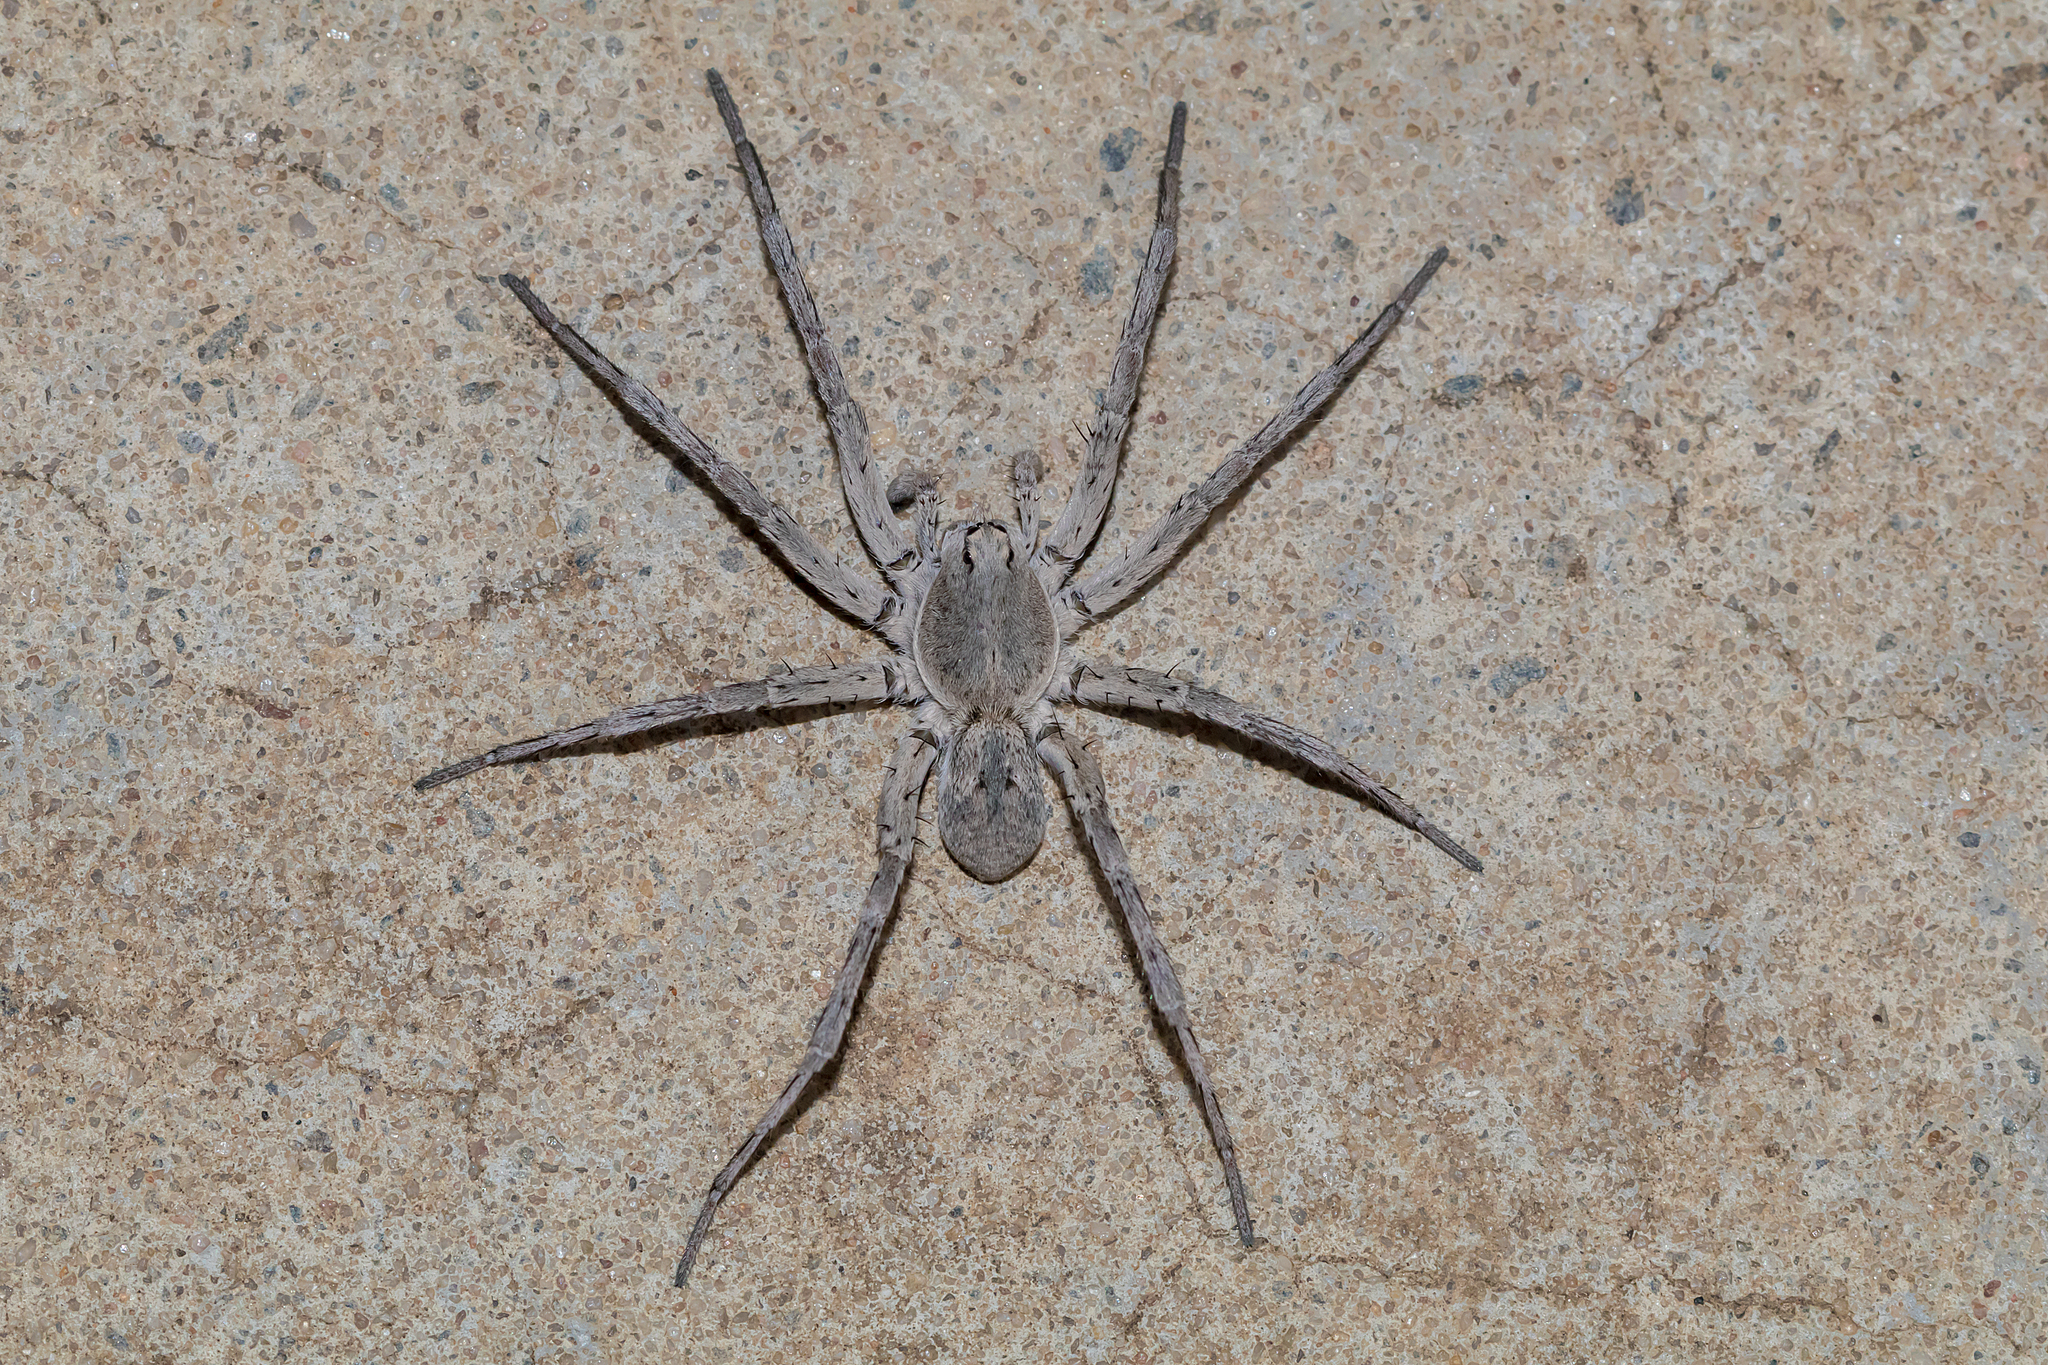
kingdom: Animalia
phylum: Arthropoda
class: Arachnida
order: Araneae
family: Lycosidae
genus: Portacosa
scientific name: Portacosa cinerea
